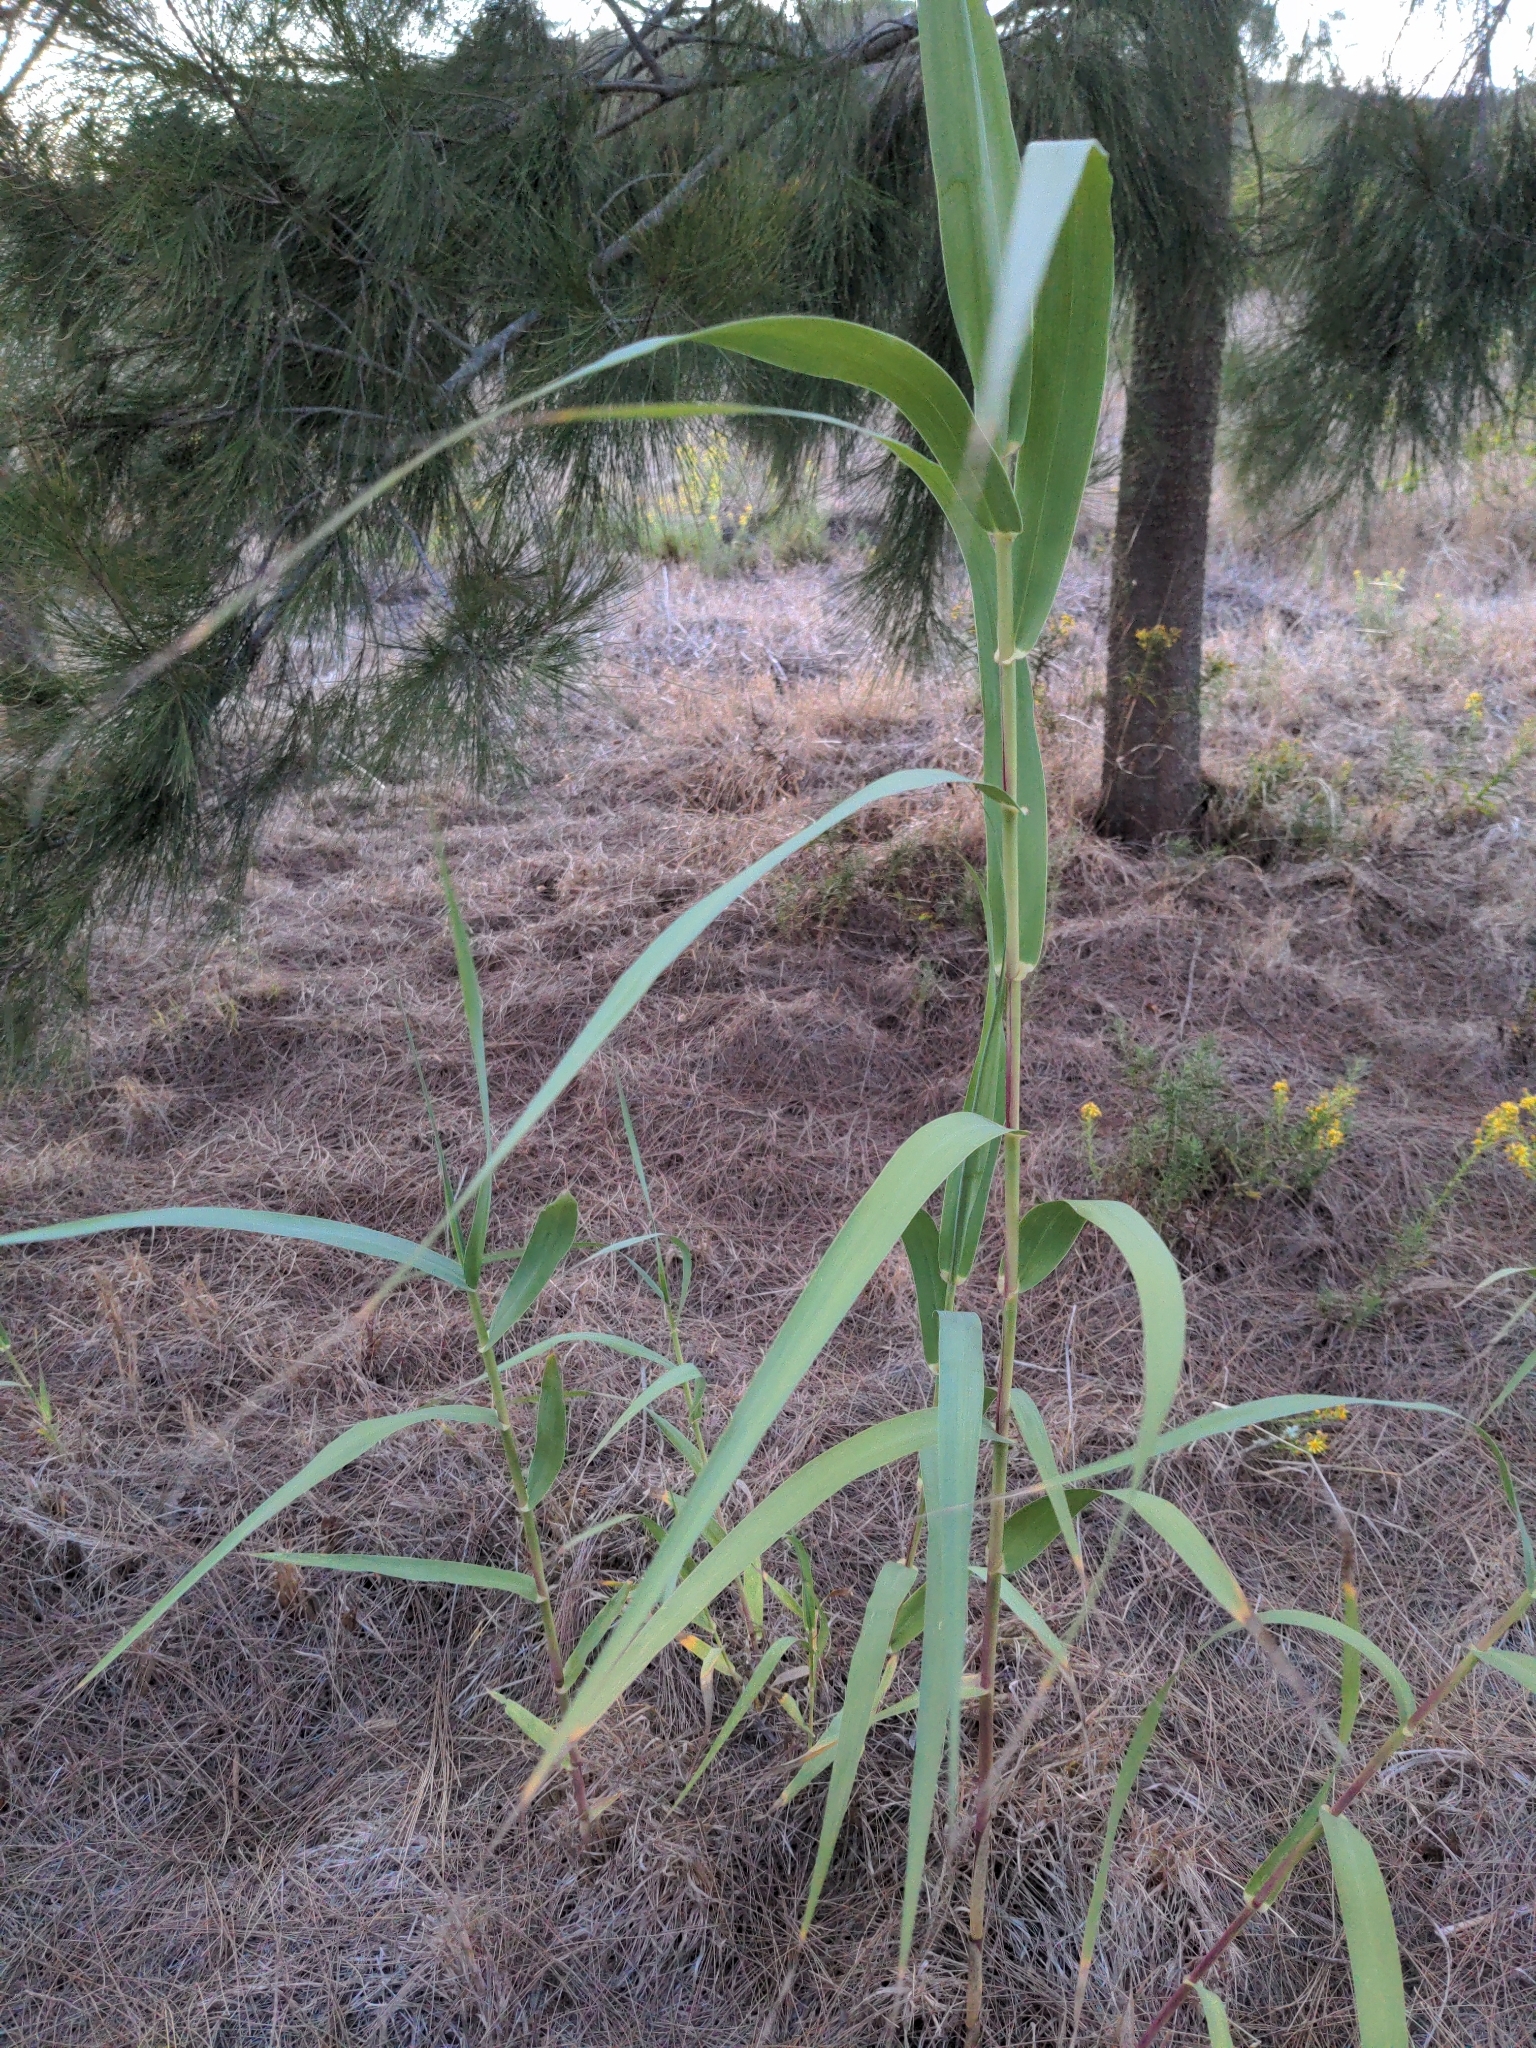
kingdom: Plantae
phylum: Tracheophyta
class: Liliopsida
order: Poales
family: Poaceae
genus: Arundo
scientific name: Arundo donax
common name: Giant reed
